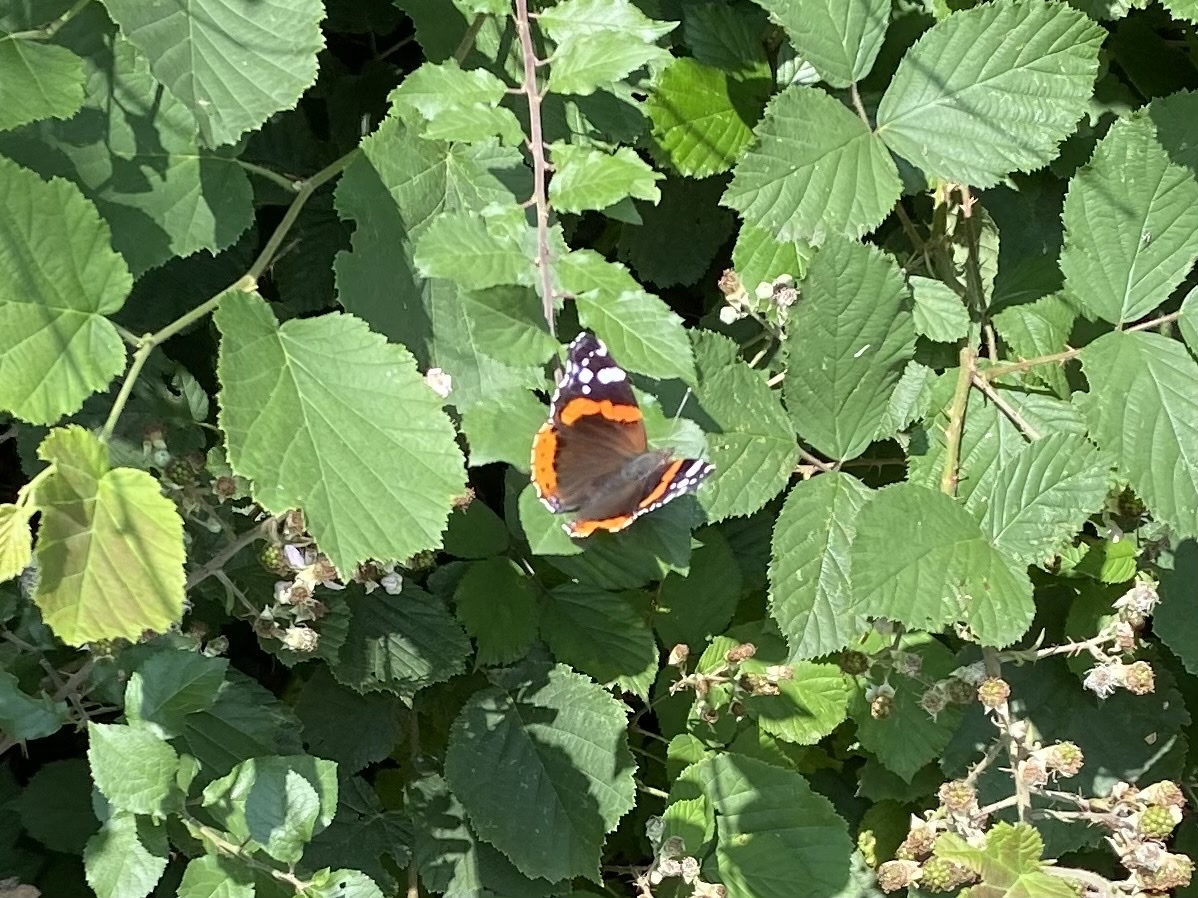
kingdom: Animalia
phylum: Arthropoda
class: Insecta
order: Lepidoptera
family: Nymphalidae
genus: Vanessa
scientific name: Vanessa atalanta
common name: Red admiral
